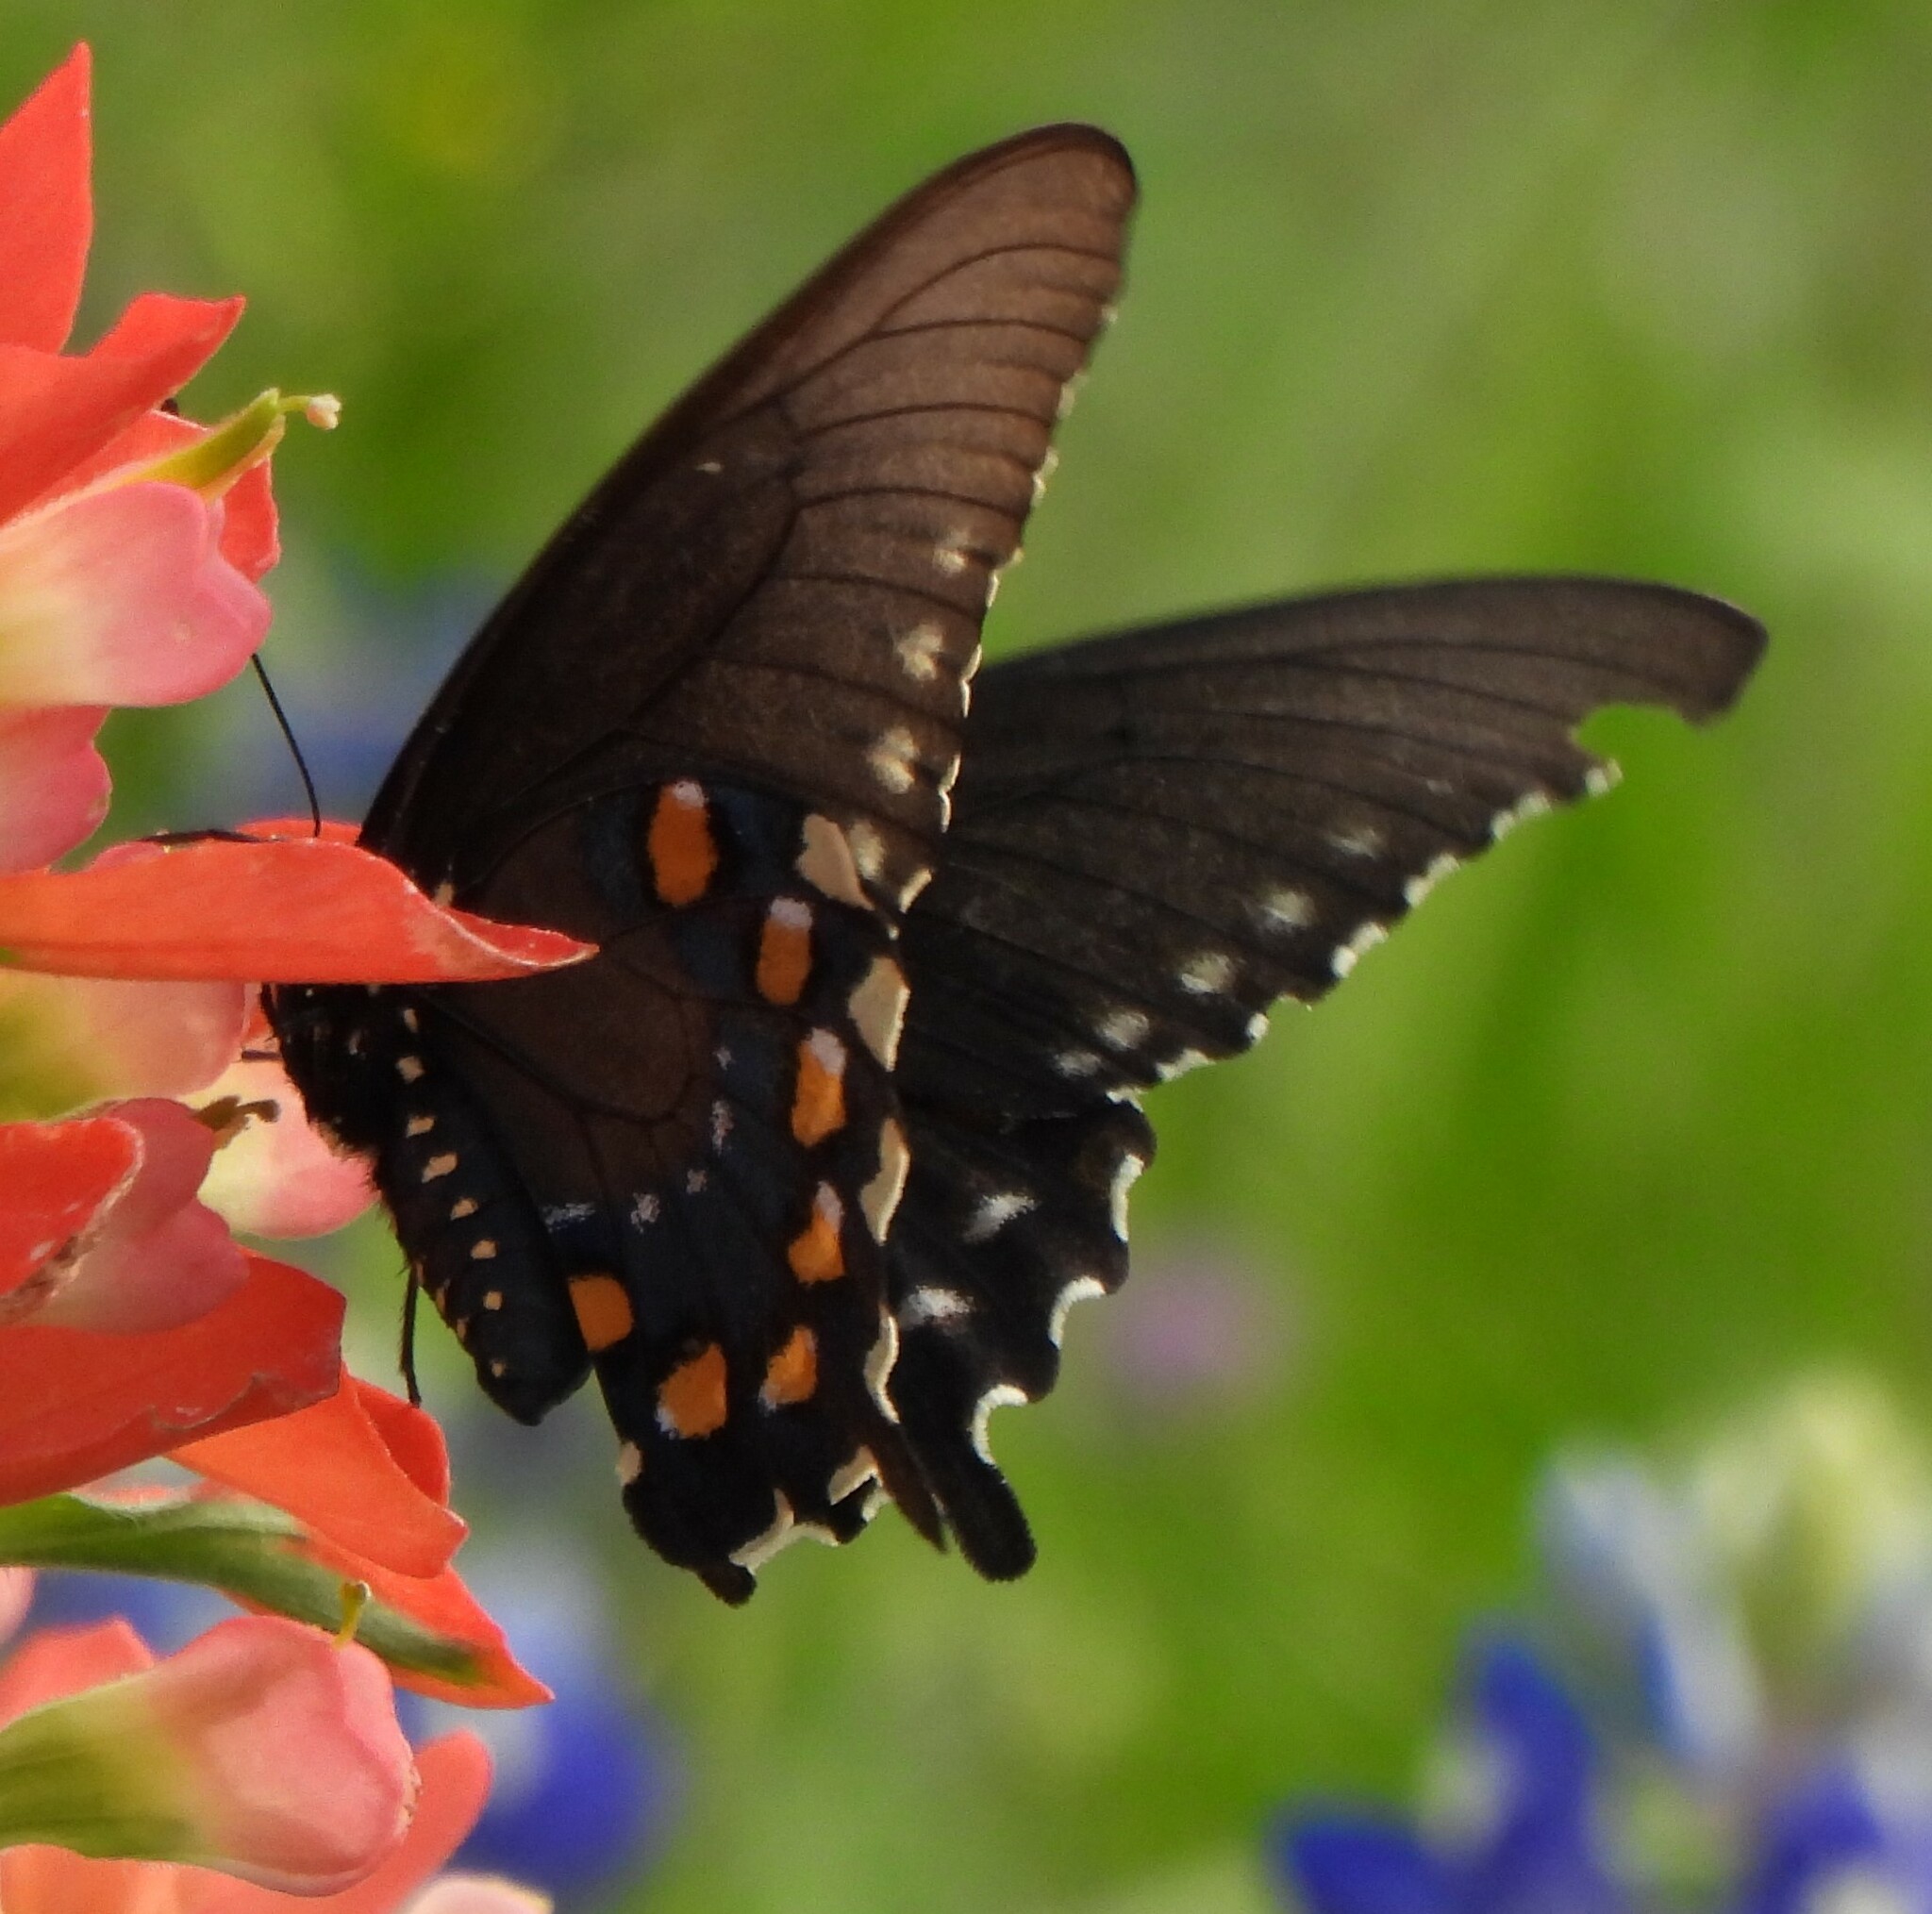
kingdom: Animalia
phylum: Arthropoda
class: Insecta
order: Lepidoptera
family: Papilionidae
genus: Battus
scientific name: Battus philenor
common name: Pipevine swallowtail
